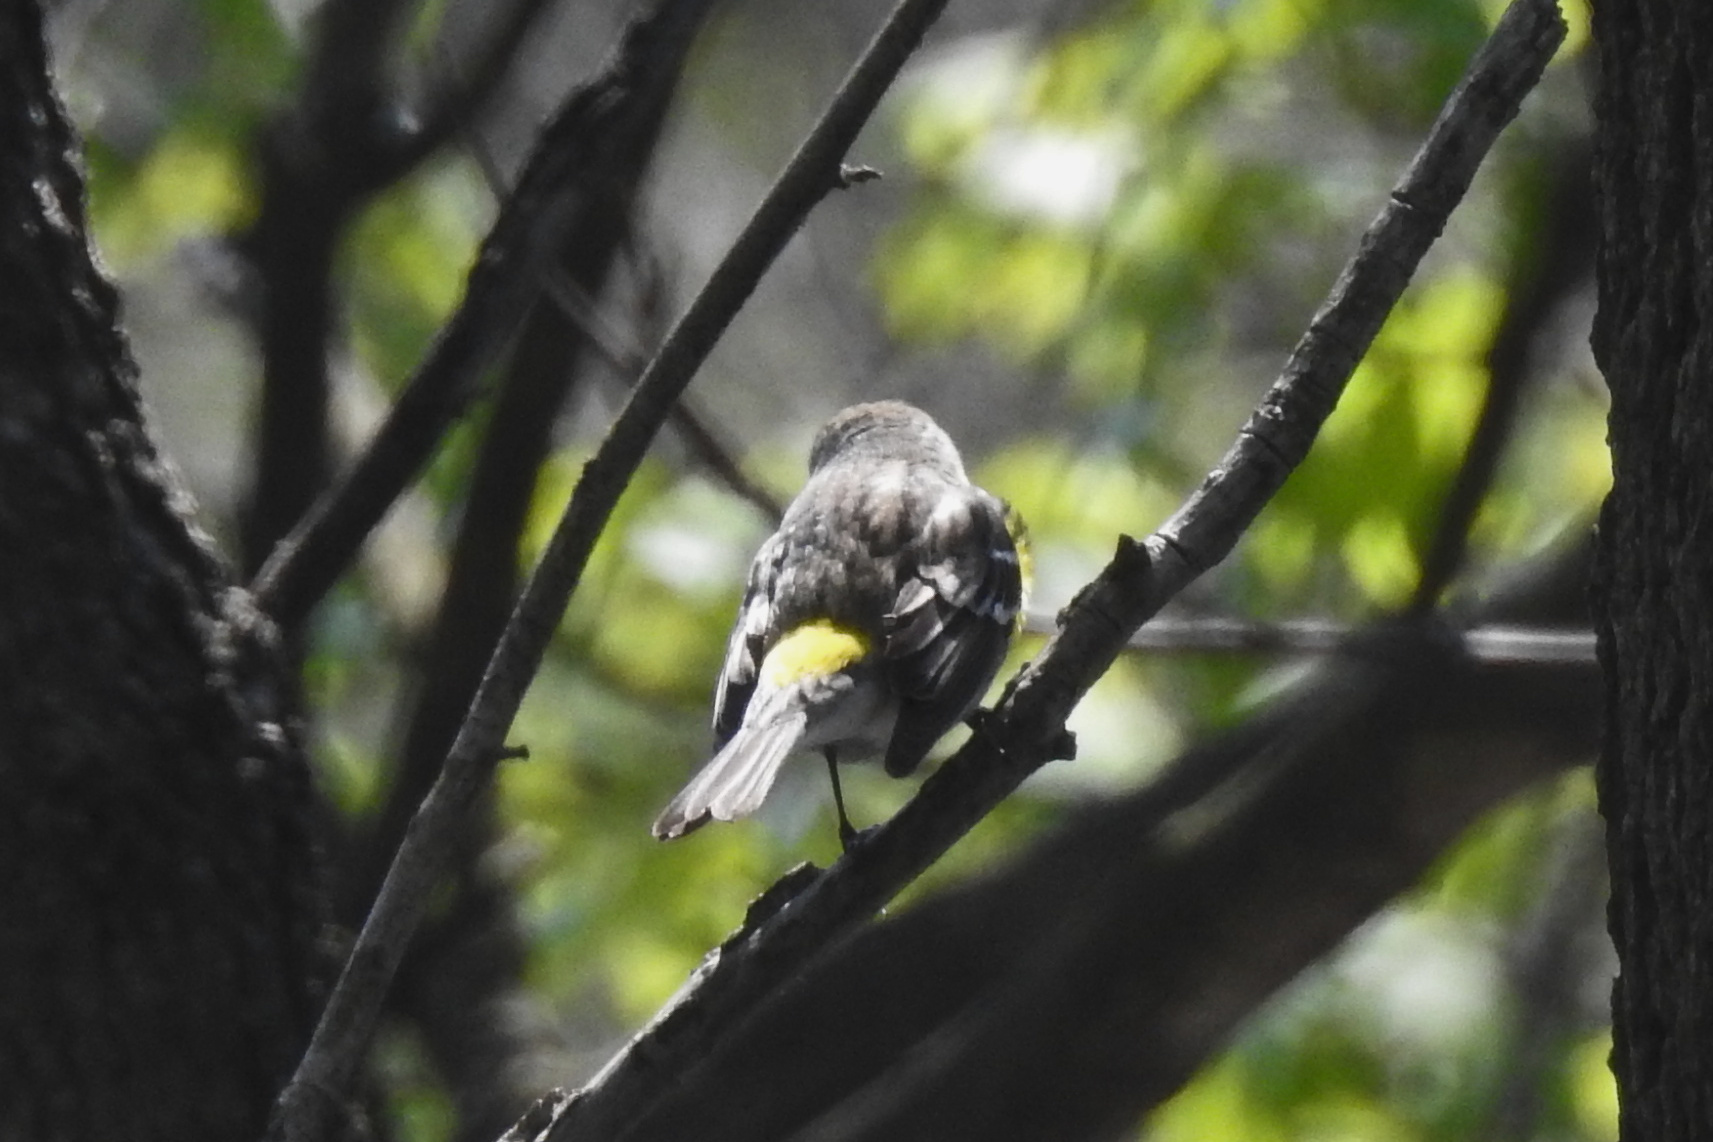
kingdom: Animalia
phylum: Chordata
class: Aves
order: Passeriformes
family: Parulidae
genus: Setophaga
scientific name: Setophaga coronata
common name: Myrtle warbler
